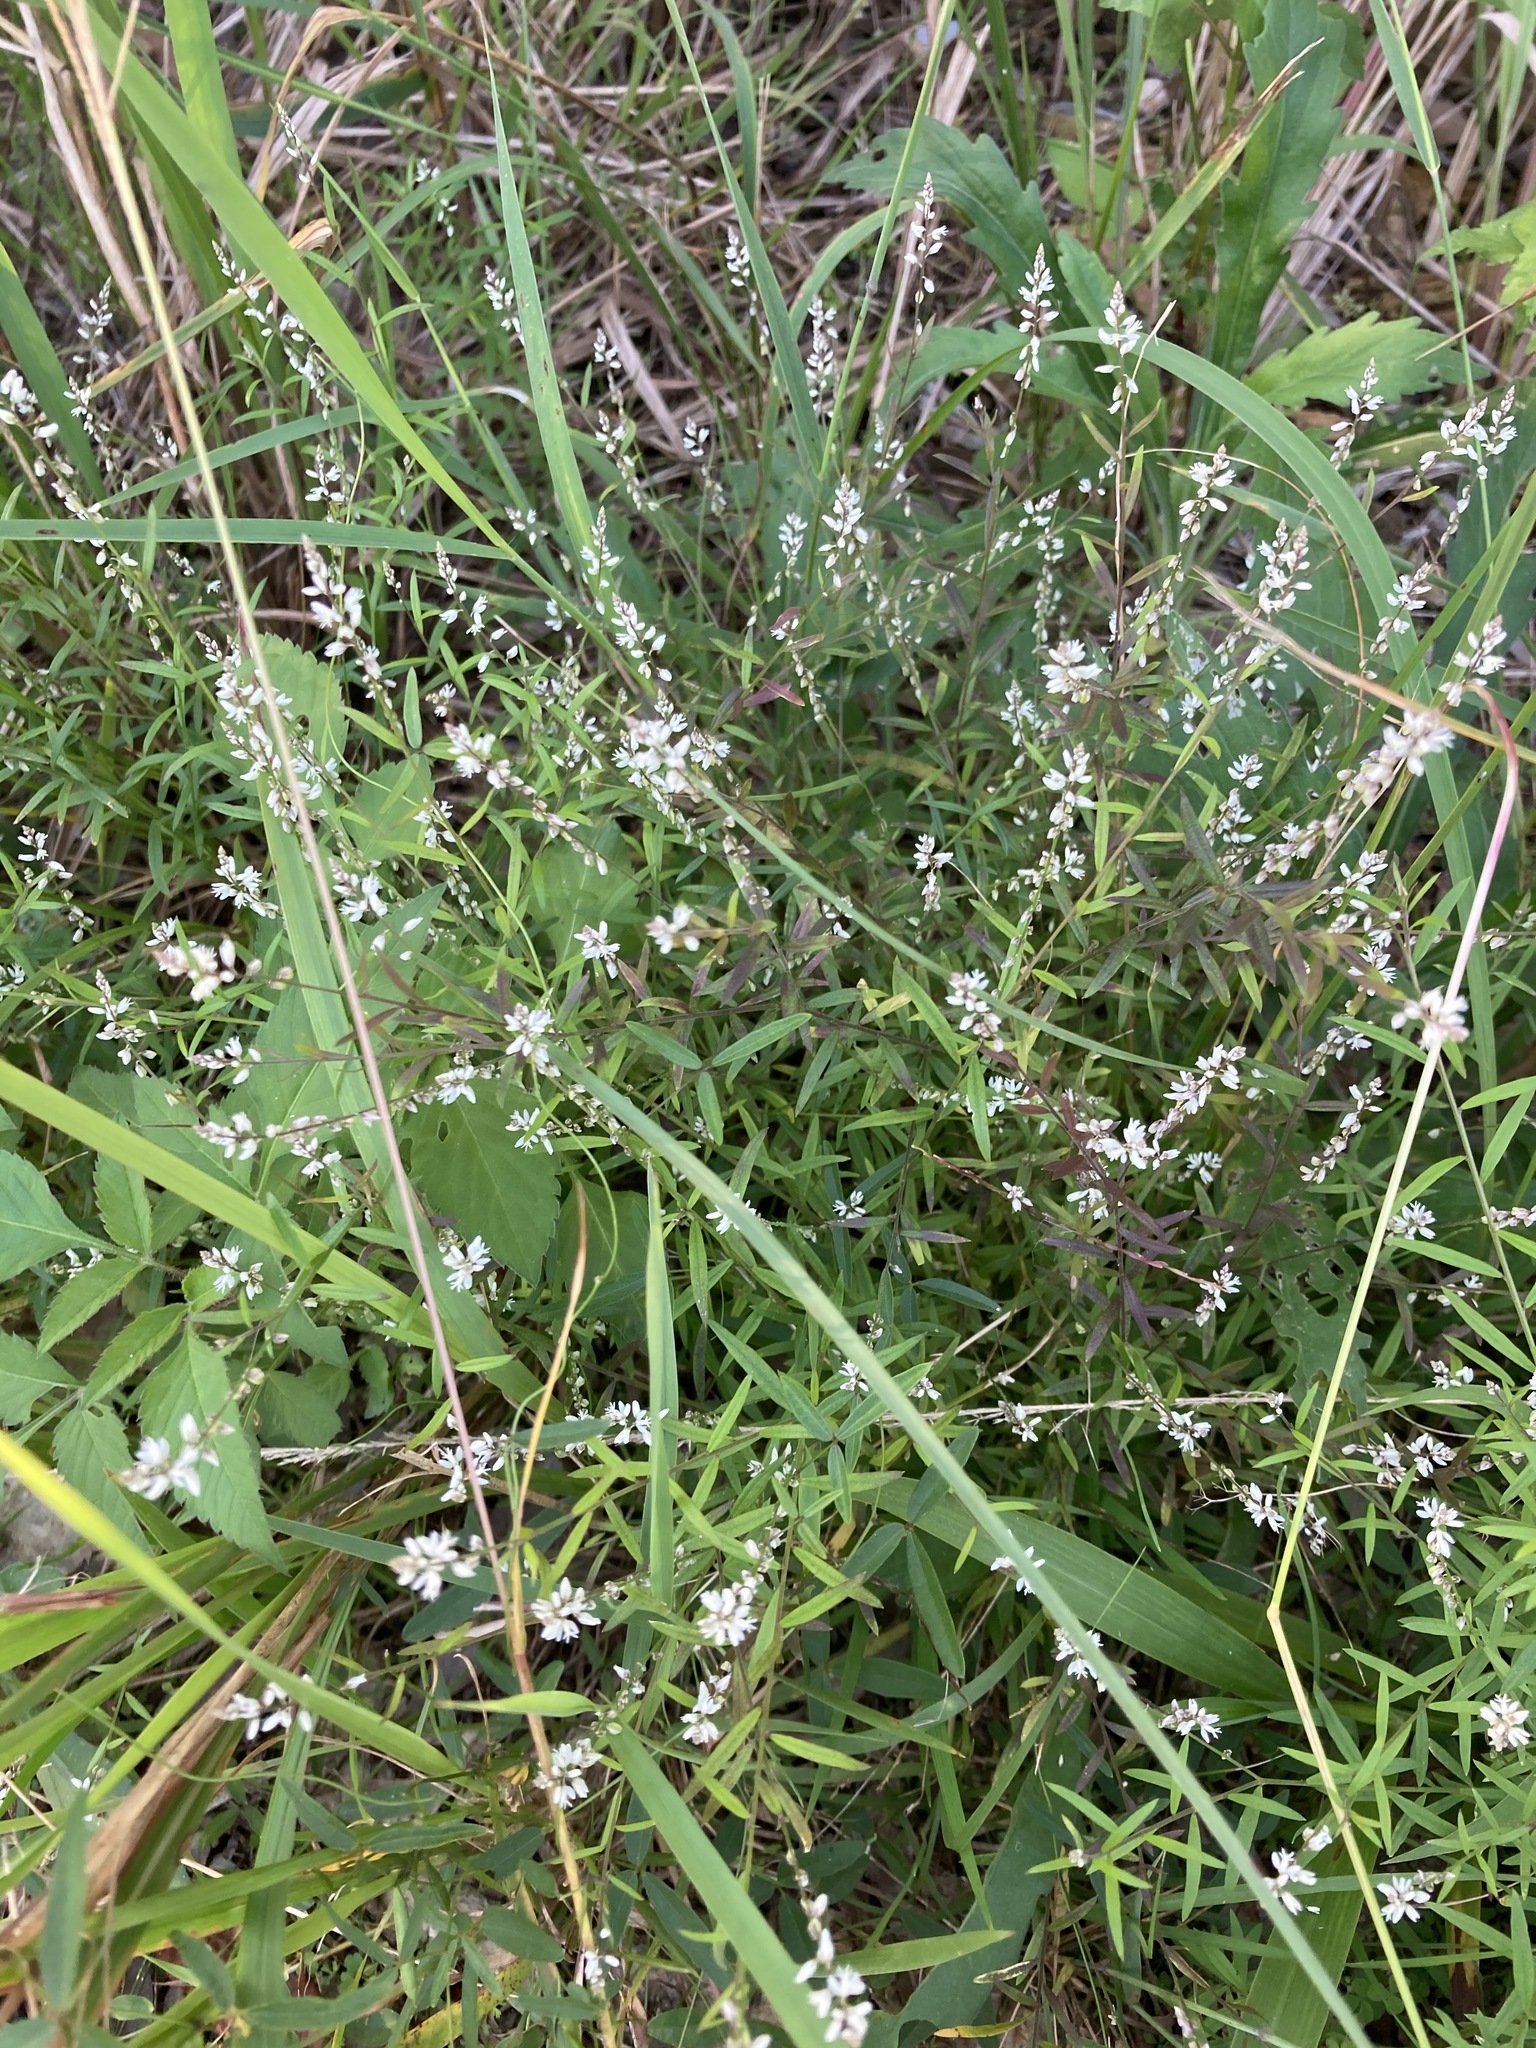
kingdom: Plantae
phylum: Tracheophyta
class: Magnoliopsida
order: Fabales
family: Polygalaceae
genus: Polygala
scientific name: Polygala paniculata
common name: Orosne
